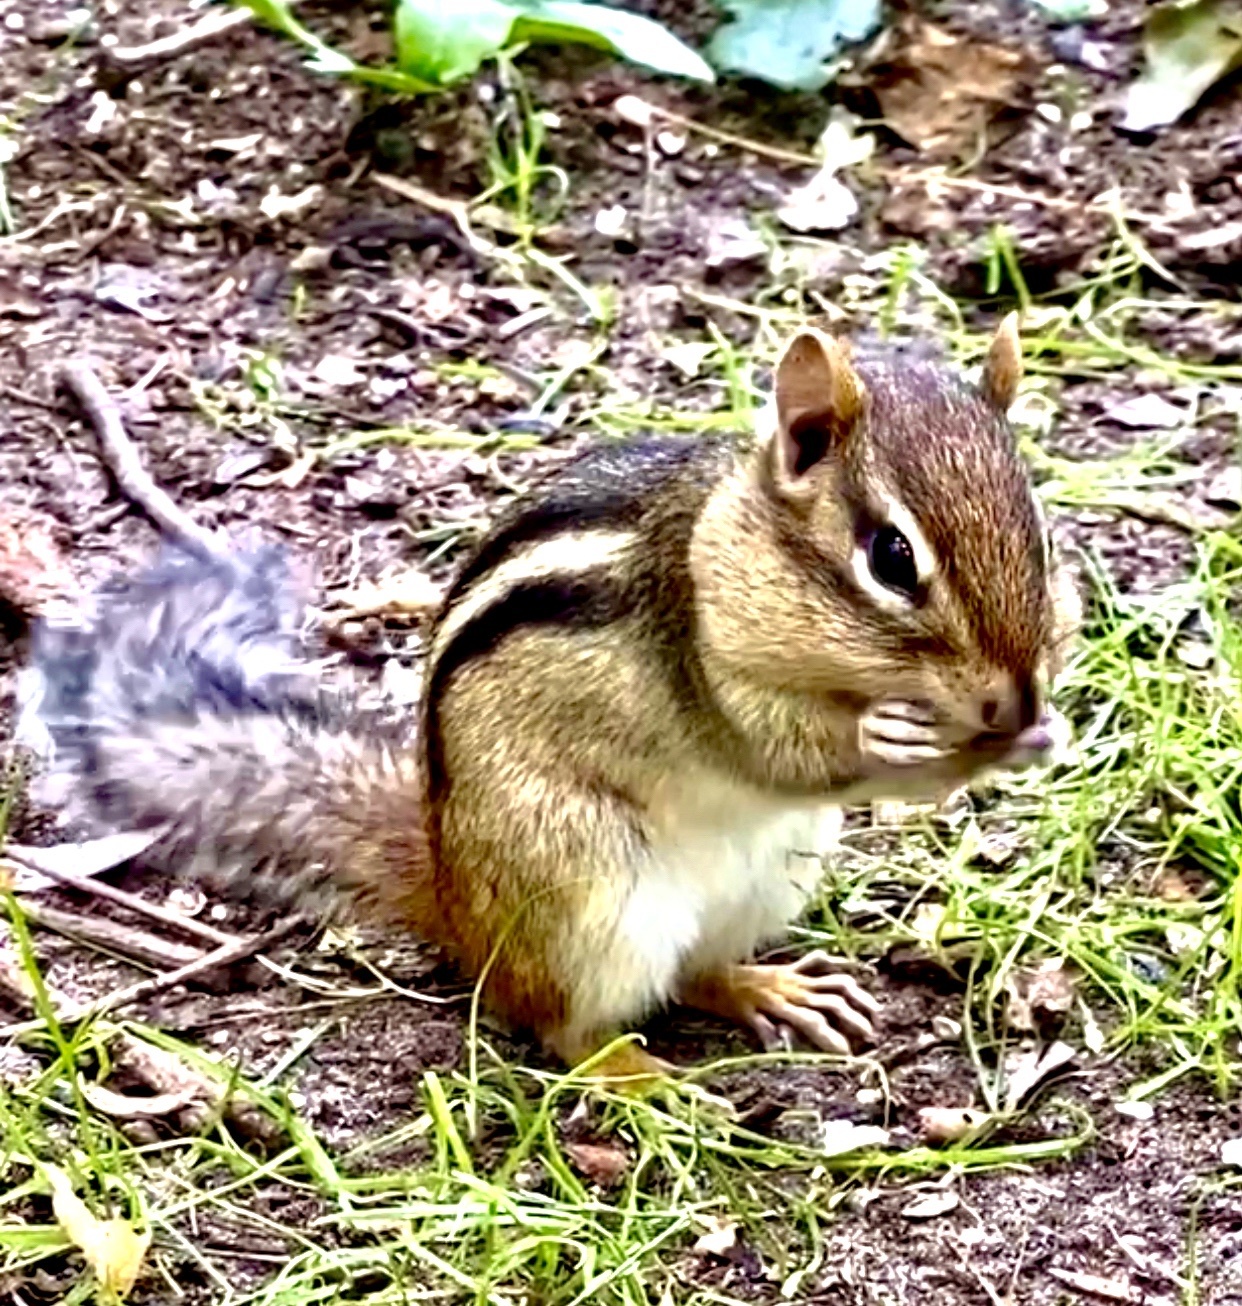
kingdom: Animalia
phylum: Chordata
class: Mammalia
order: Rodentia
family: Sciuridae
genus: Tamias
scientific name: Tamias striatus
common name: Eastern chipmunk
